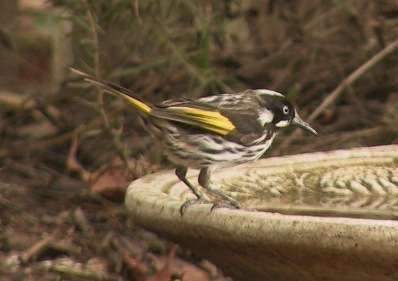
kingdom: Animalia
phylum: Chordata
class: Aves
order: Passeriformes
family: Meliphagidae
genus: Phylidonyris
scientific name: Phylidonyris novaehollandiae
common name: New holland honeyeater
